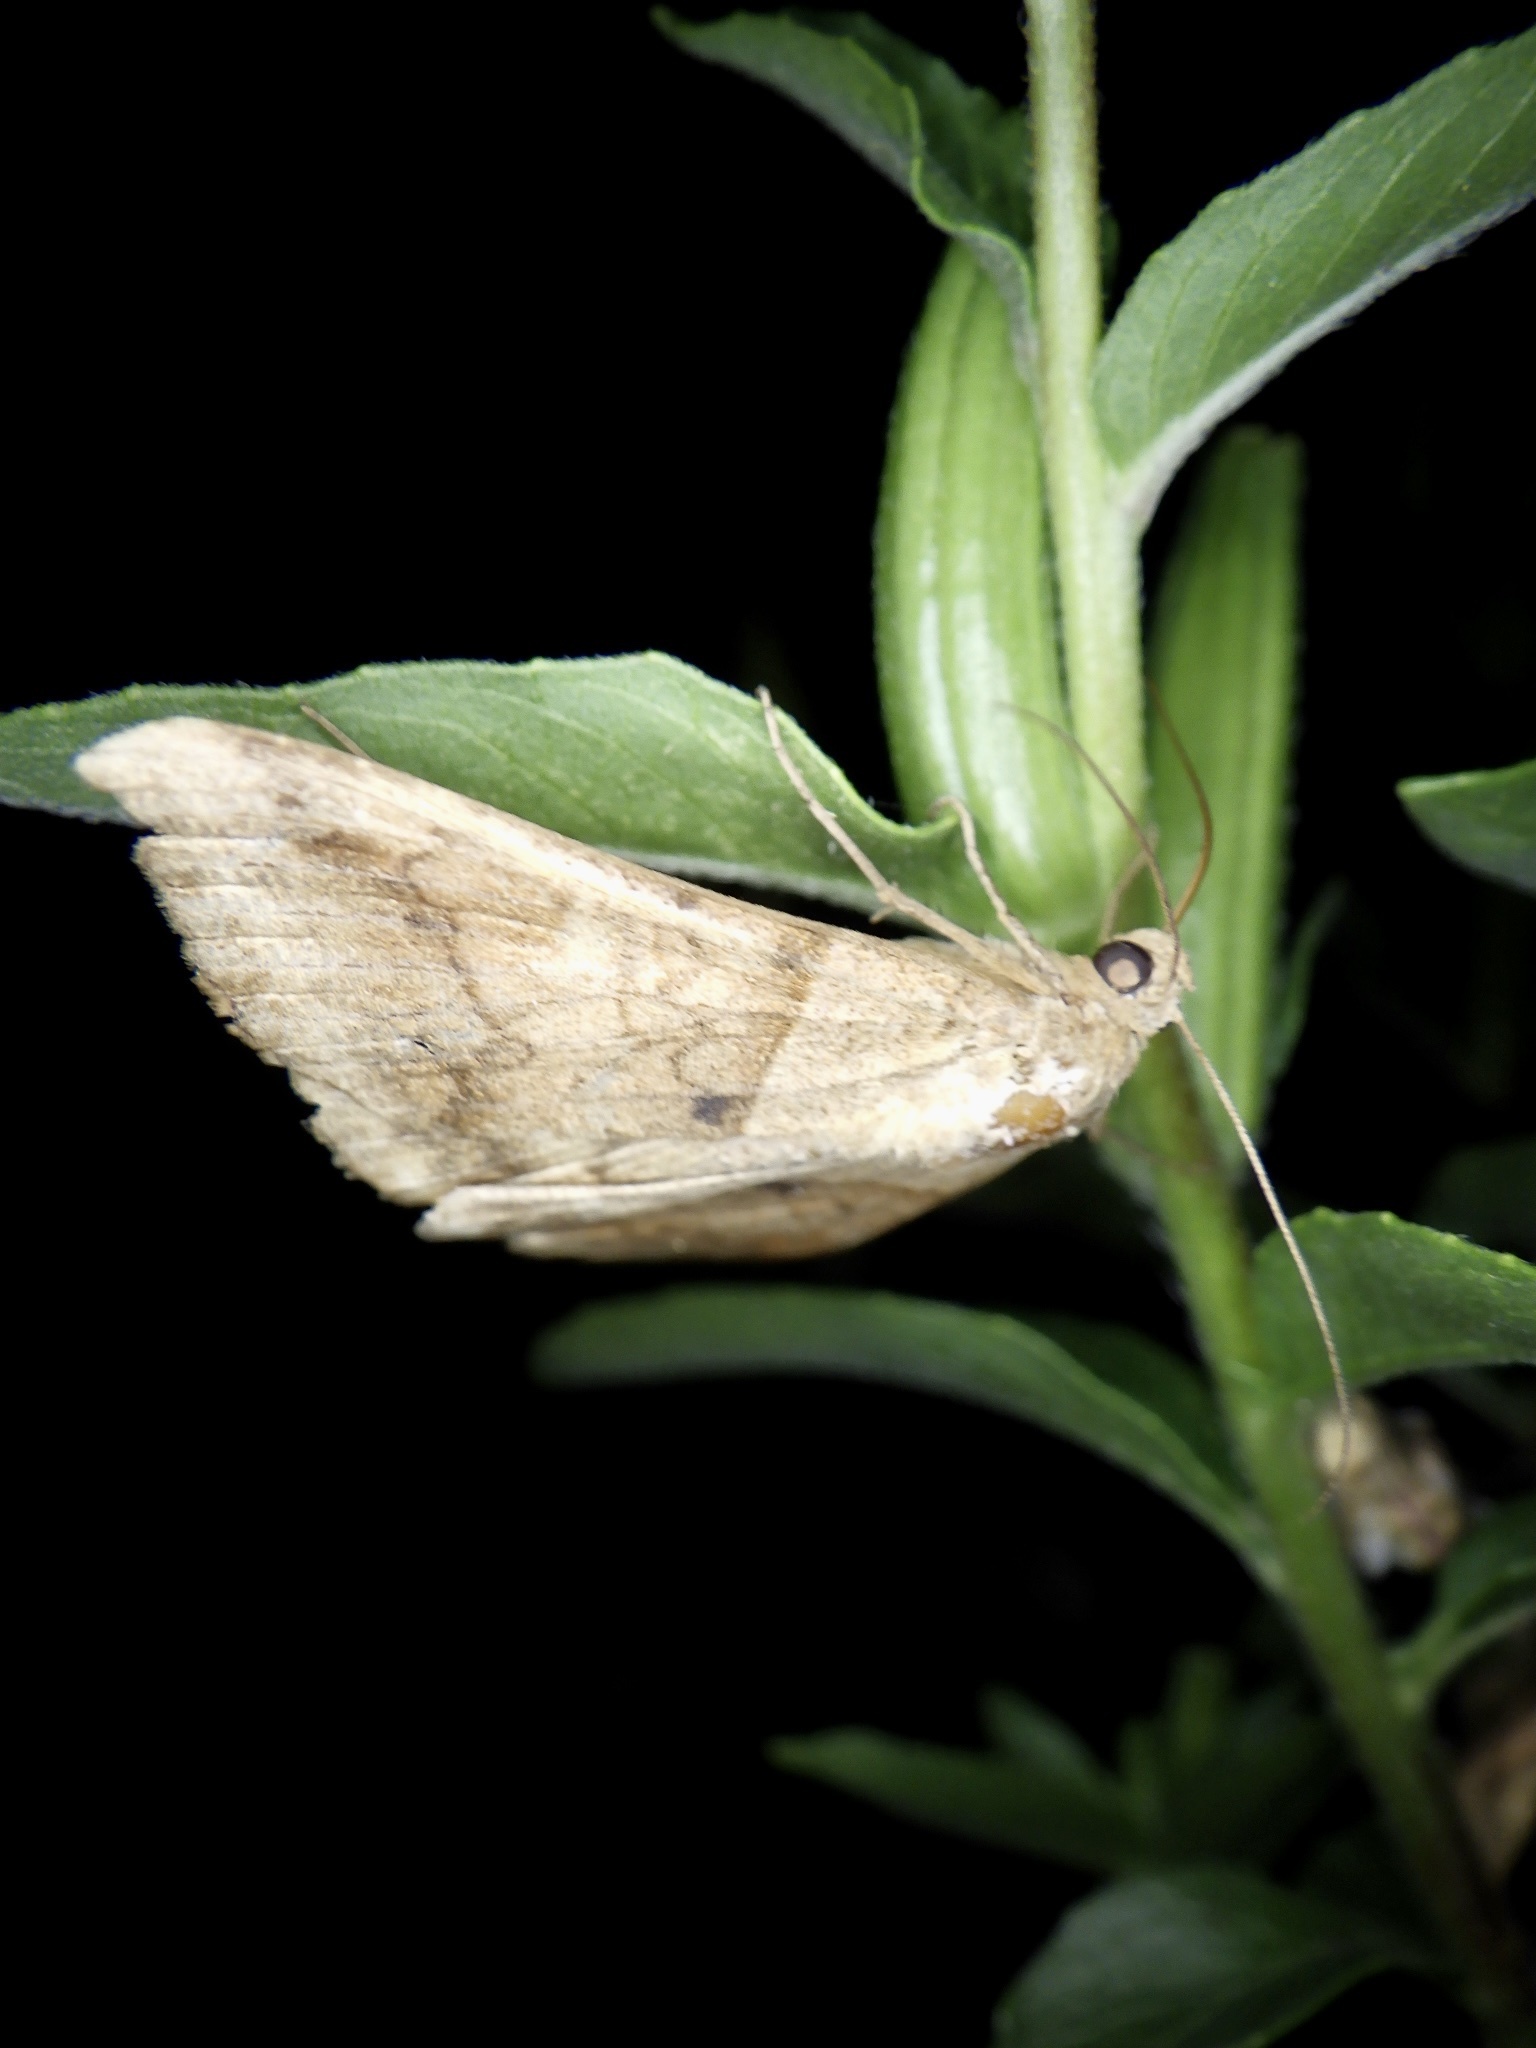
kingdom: Animalia
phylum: Arthropoda
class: Insecta
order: Lepidoptera
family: Erebidae
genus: Mocis
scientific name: Mocis undata
